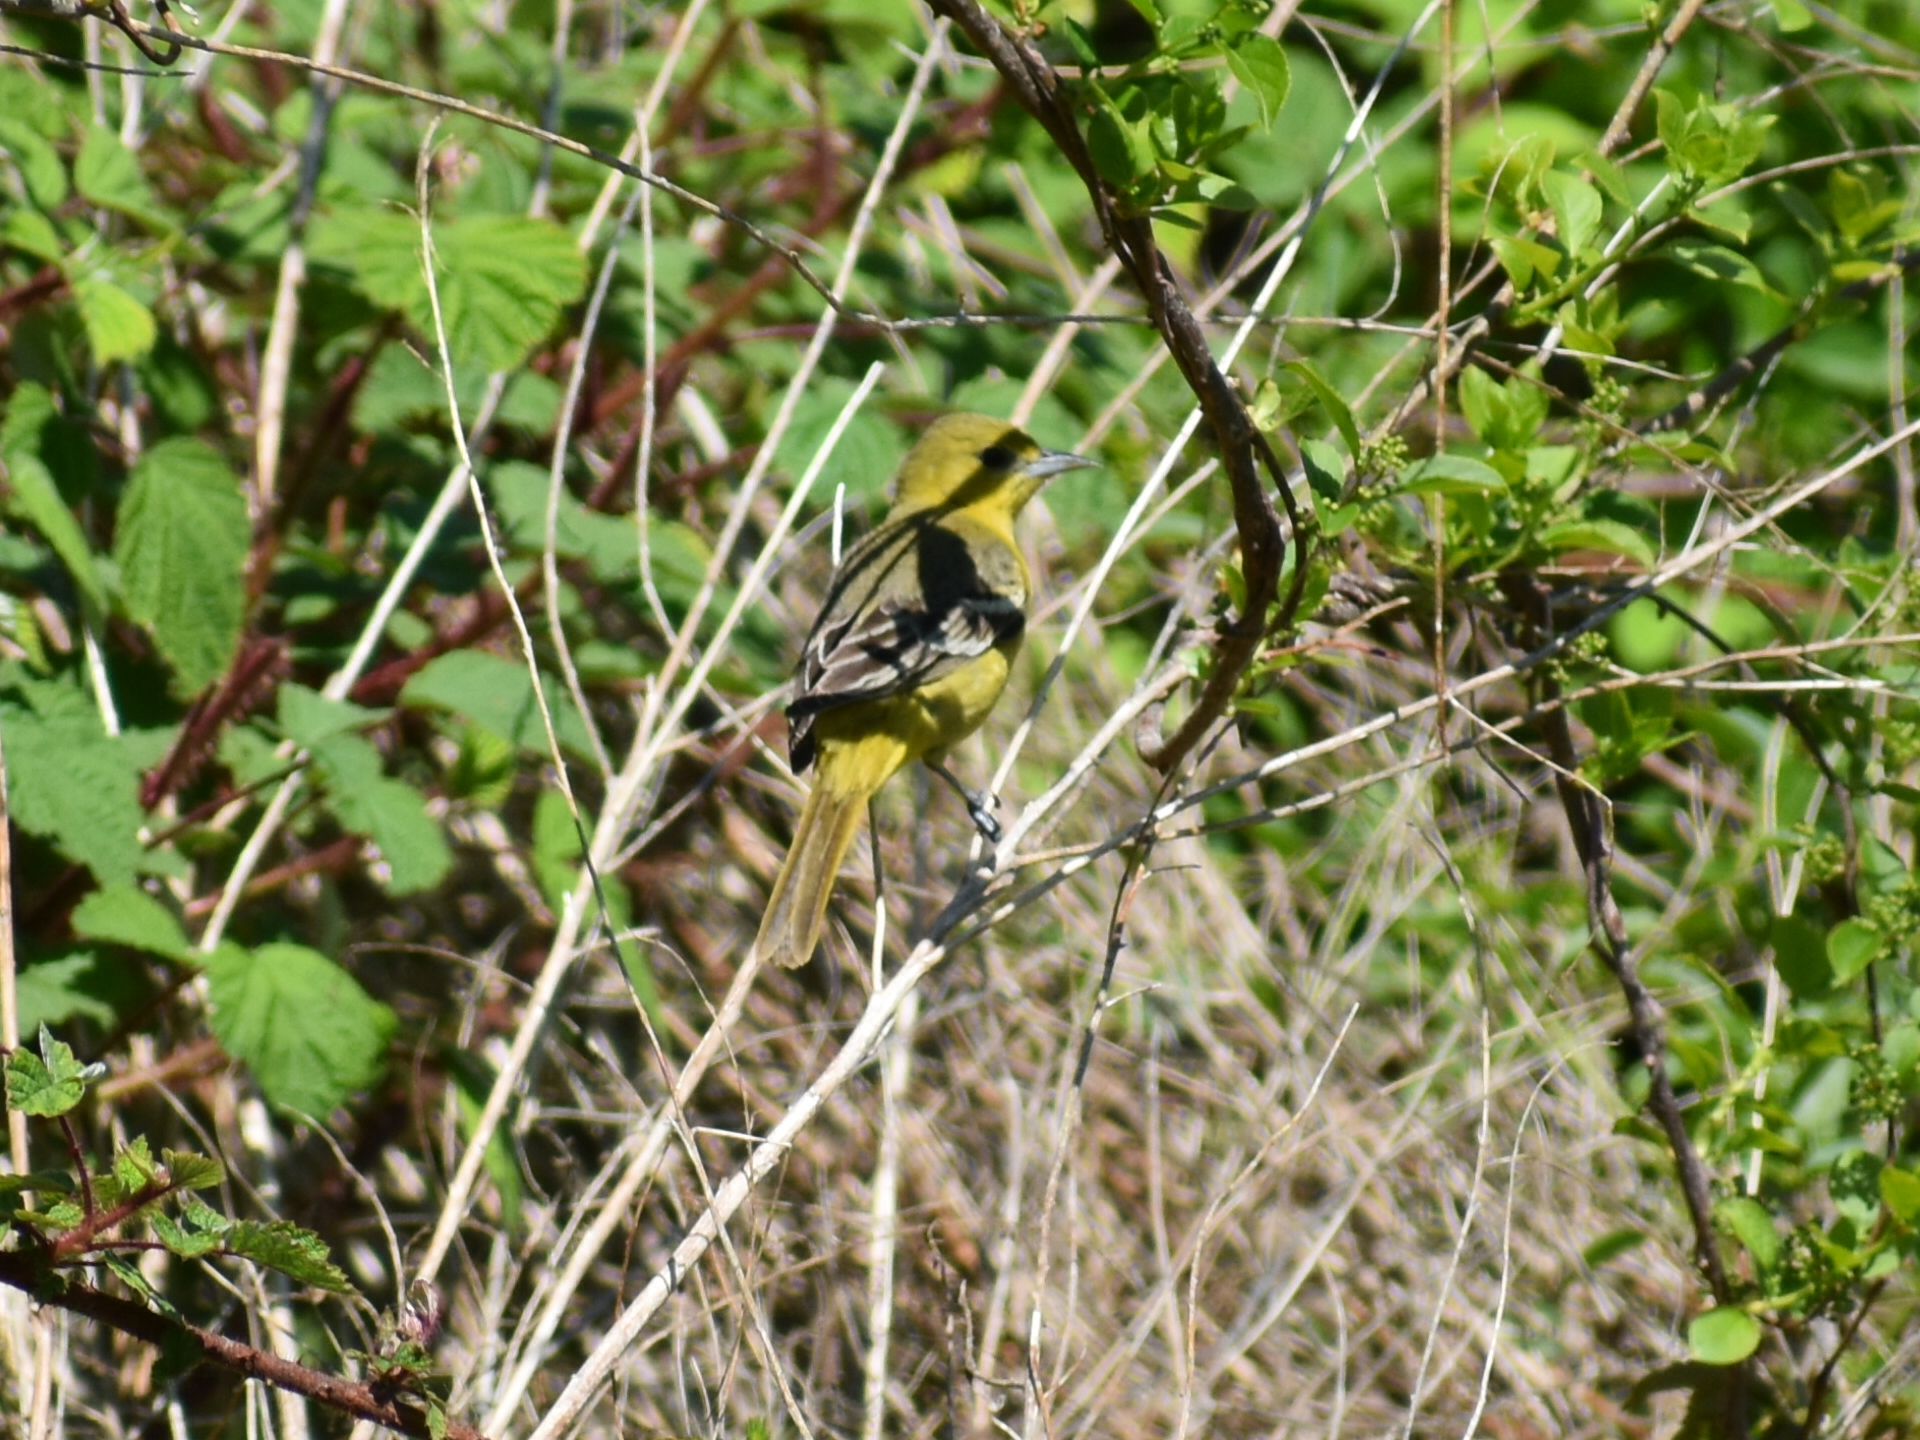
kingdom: Animalia
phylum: Chordata
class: Aves
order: Passeriformes
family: Icteridae
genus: Icterus
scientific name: Icterus spurius
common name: Orchard oriole
